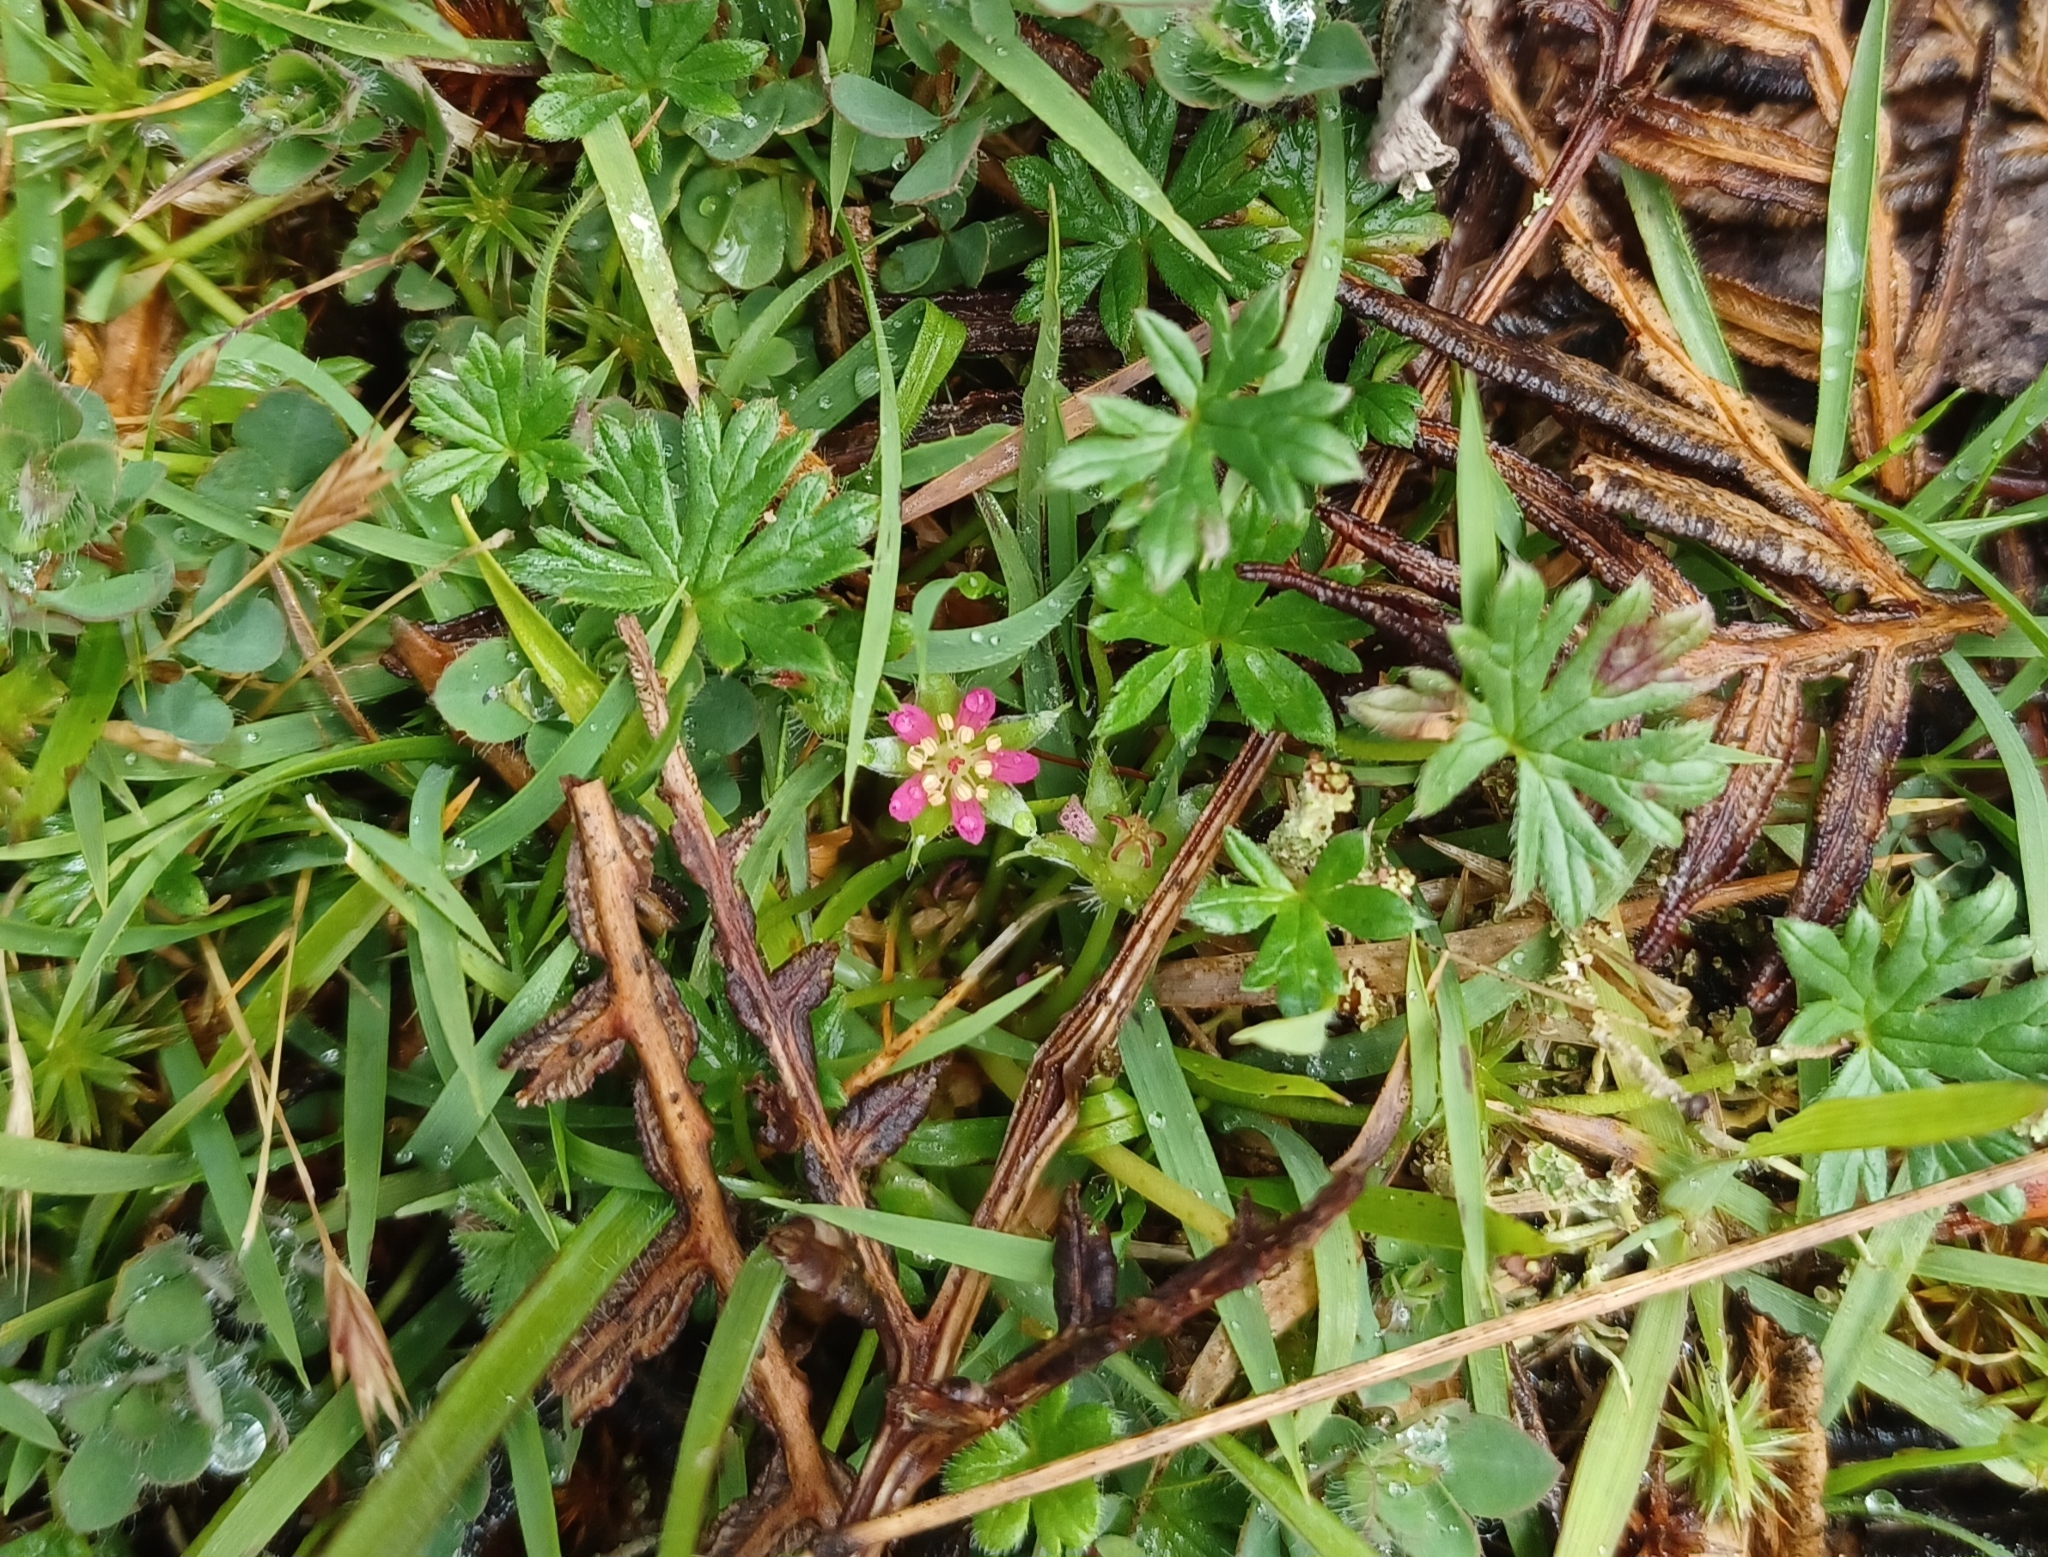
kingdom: Plantae
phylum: Tracheophyta
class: Magnoliopsida
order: Geraniales
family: Geraniaceae
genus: Geranium
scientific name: Geranium brevicaule
